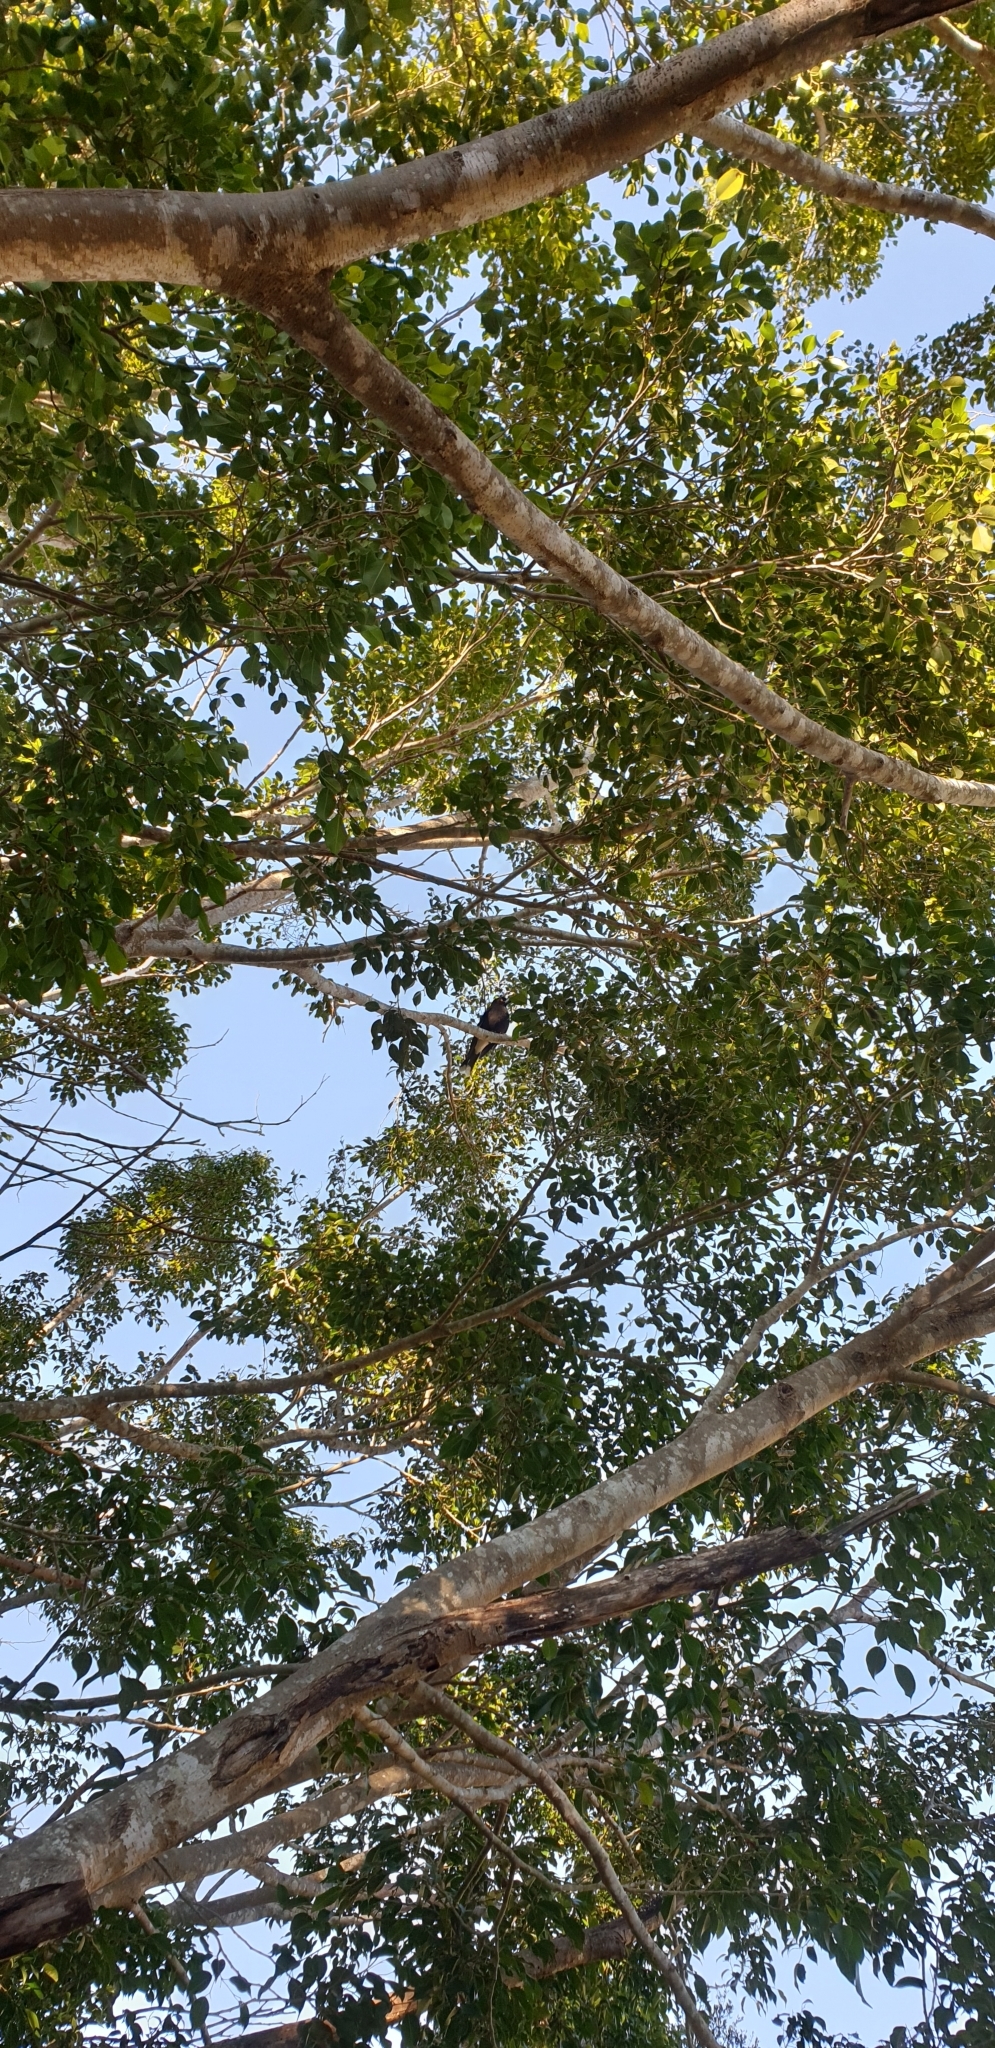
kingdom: Animalia
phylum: Chordata
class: Aves
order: Passeriformes
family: Cracticidae
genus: Strepera
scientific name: Strepera graculina
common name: Pied currawong
